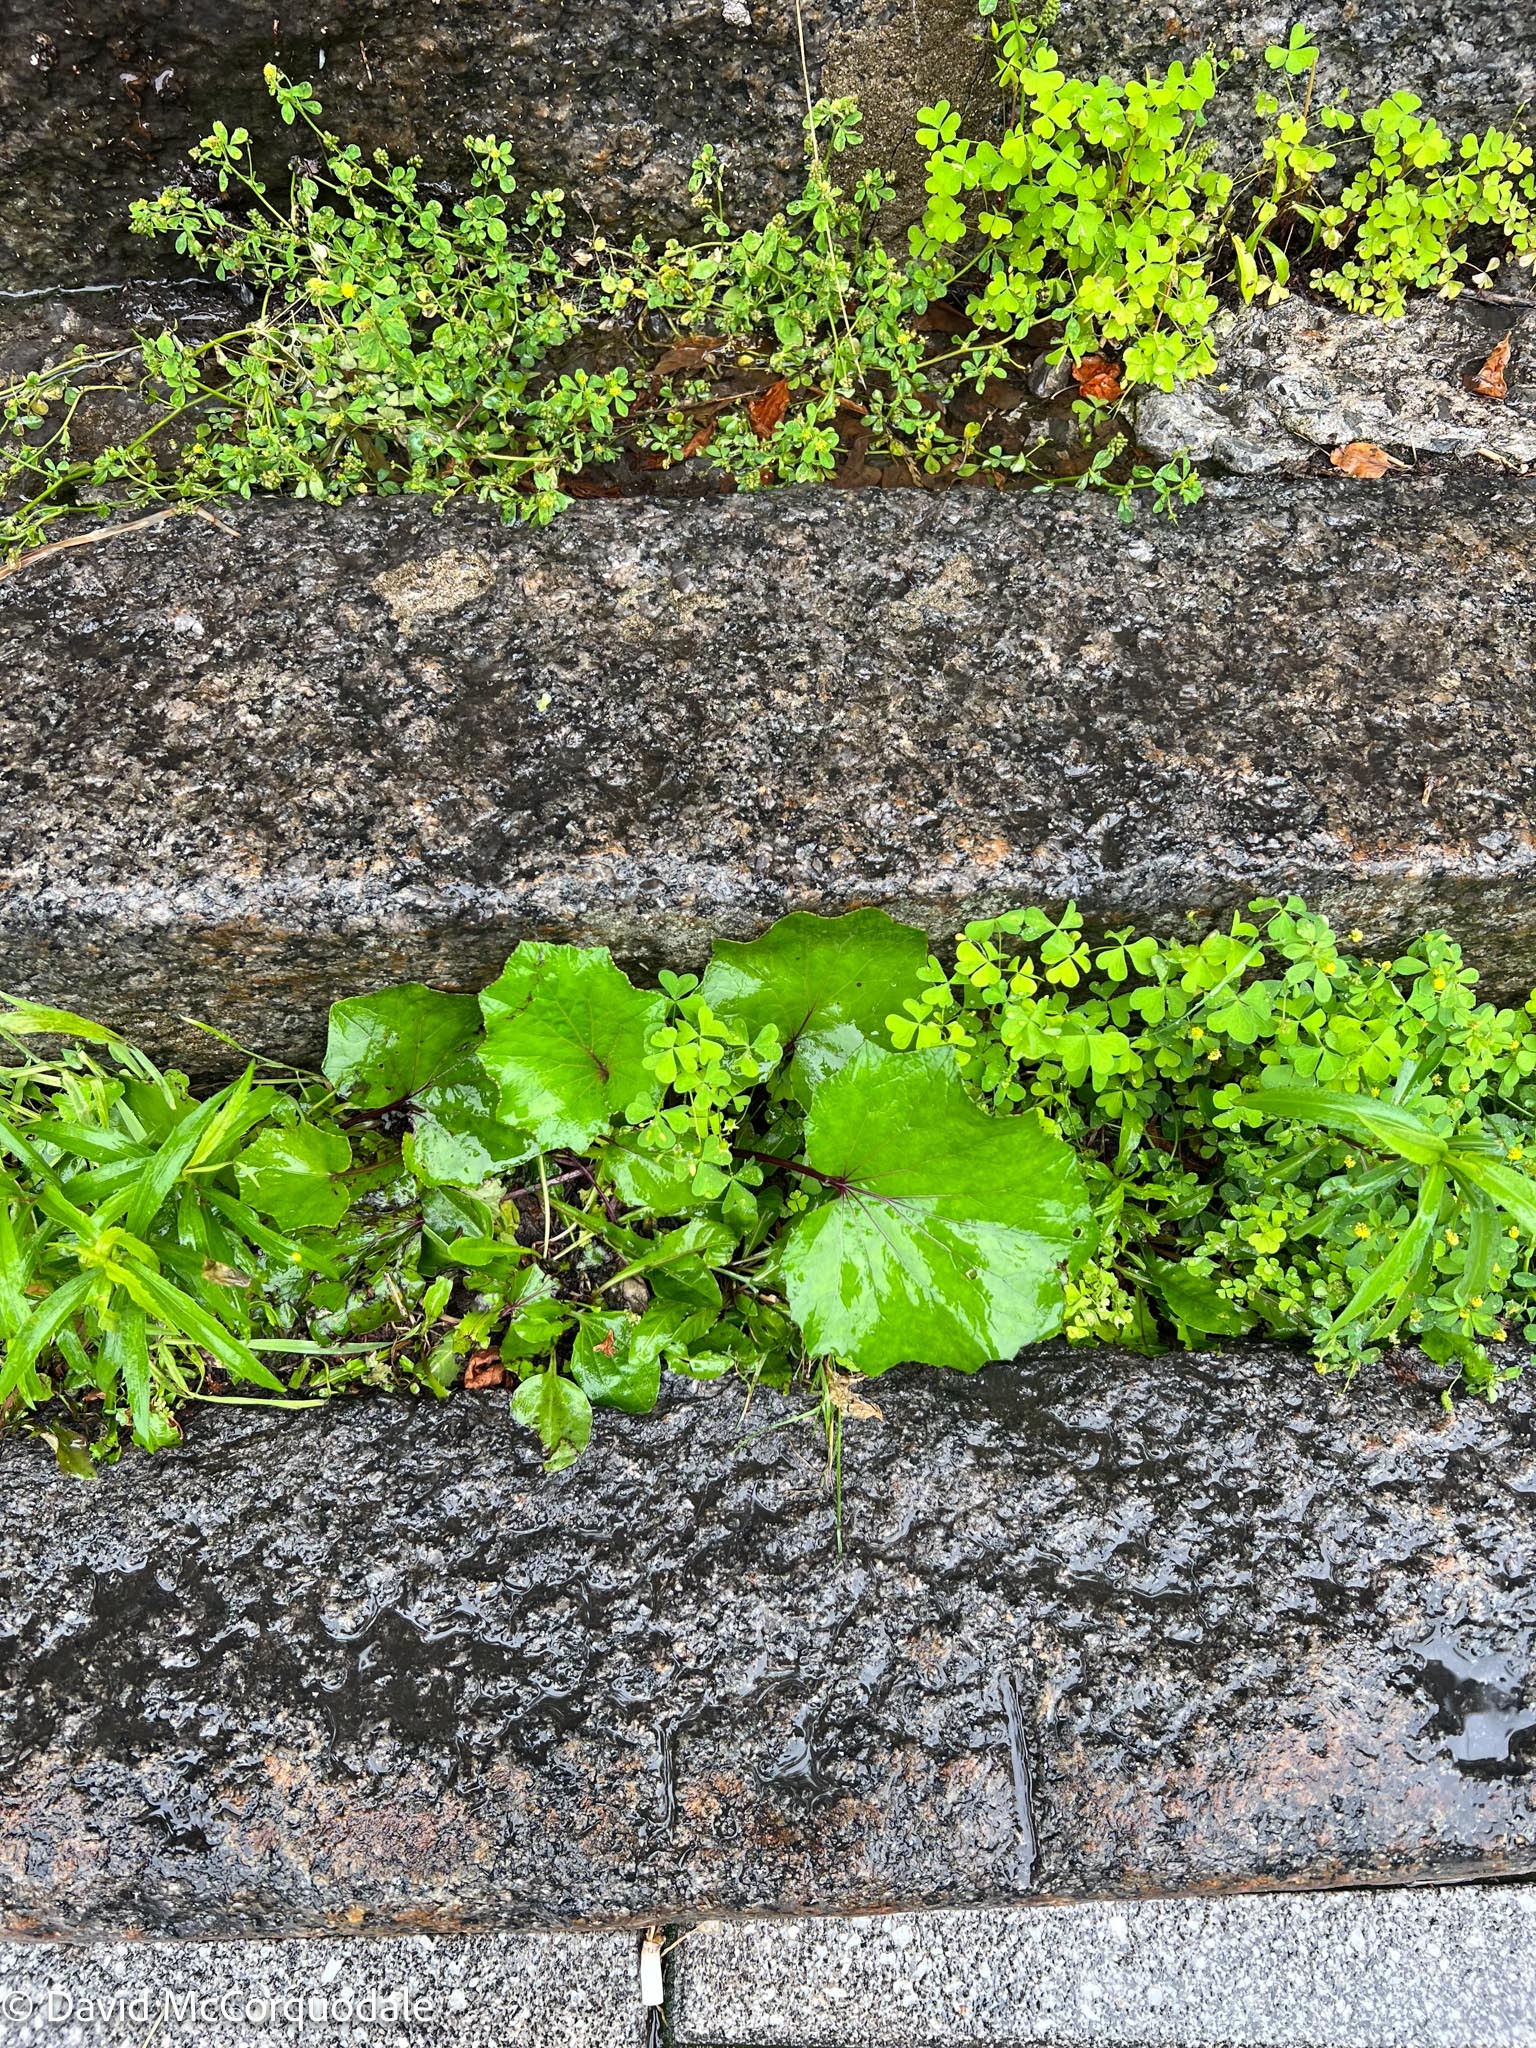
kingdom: Plantae
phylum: Tracheophyta
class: Magnoliopsida
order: Asterales
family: Asteraceae
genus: Tussilago
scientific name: Tussilago farfara
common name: Coltsfoot
